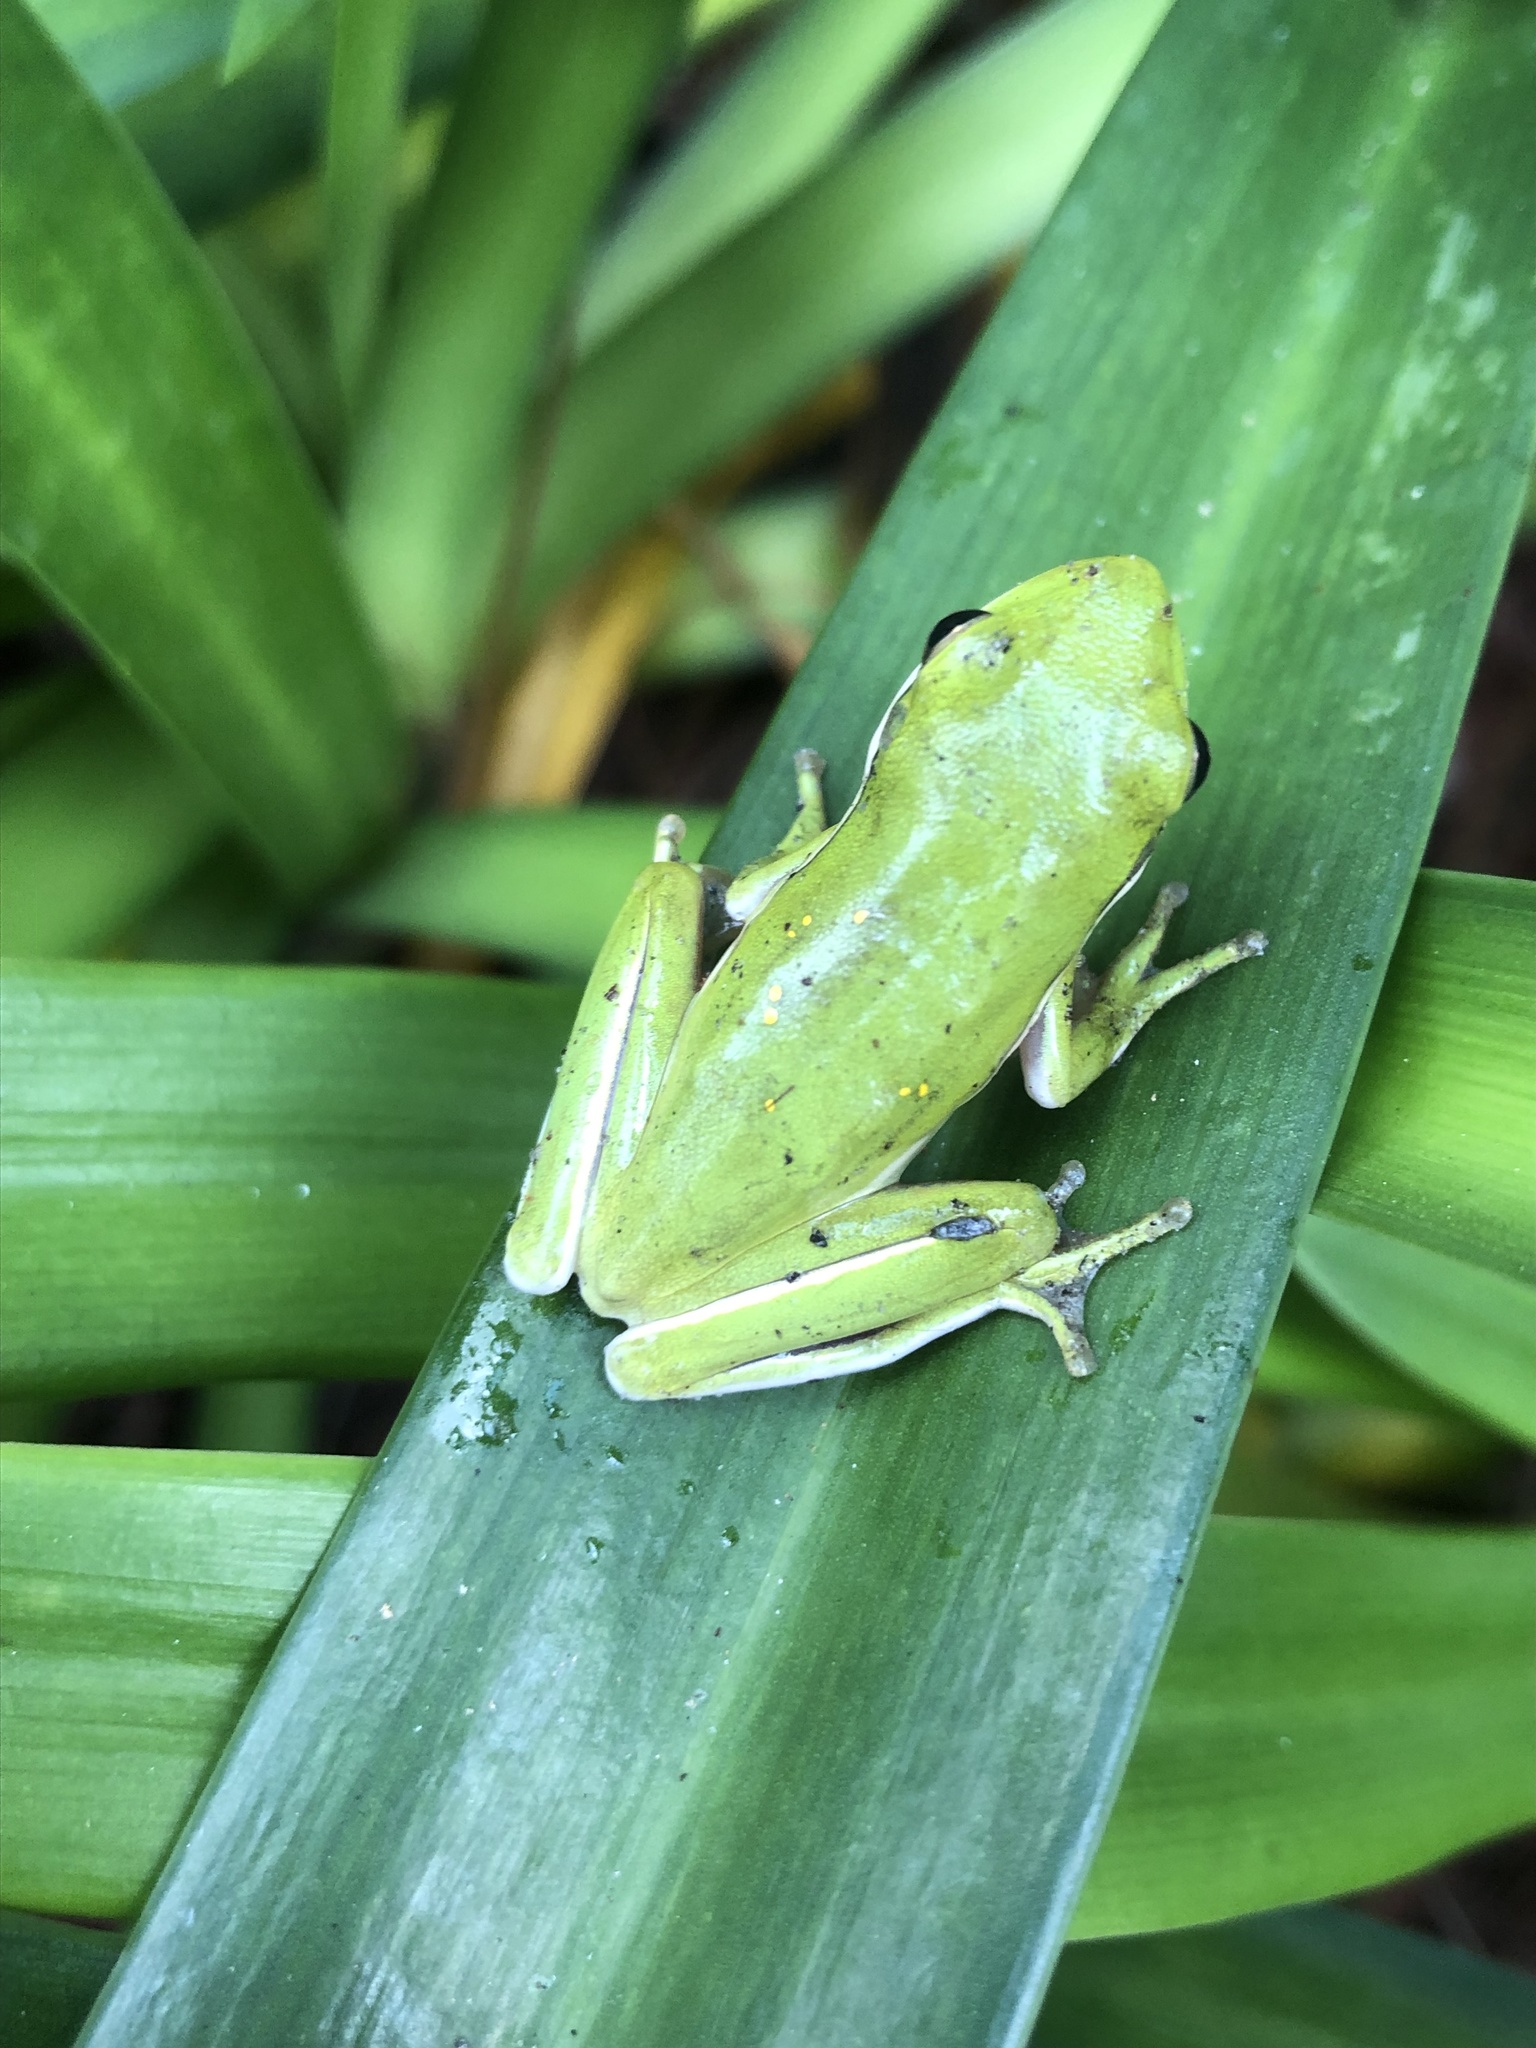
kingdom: Animalia
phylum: Chordata
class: Amphibia
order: Anura
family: Hylidae
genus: Dryophytes
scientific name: Dryophytes cinereus
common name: Green treefrog
